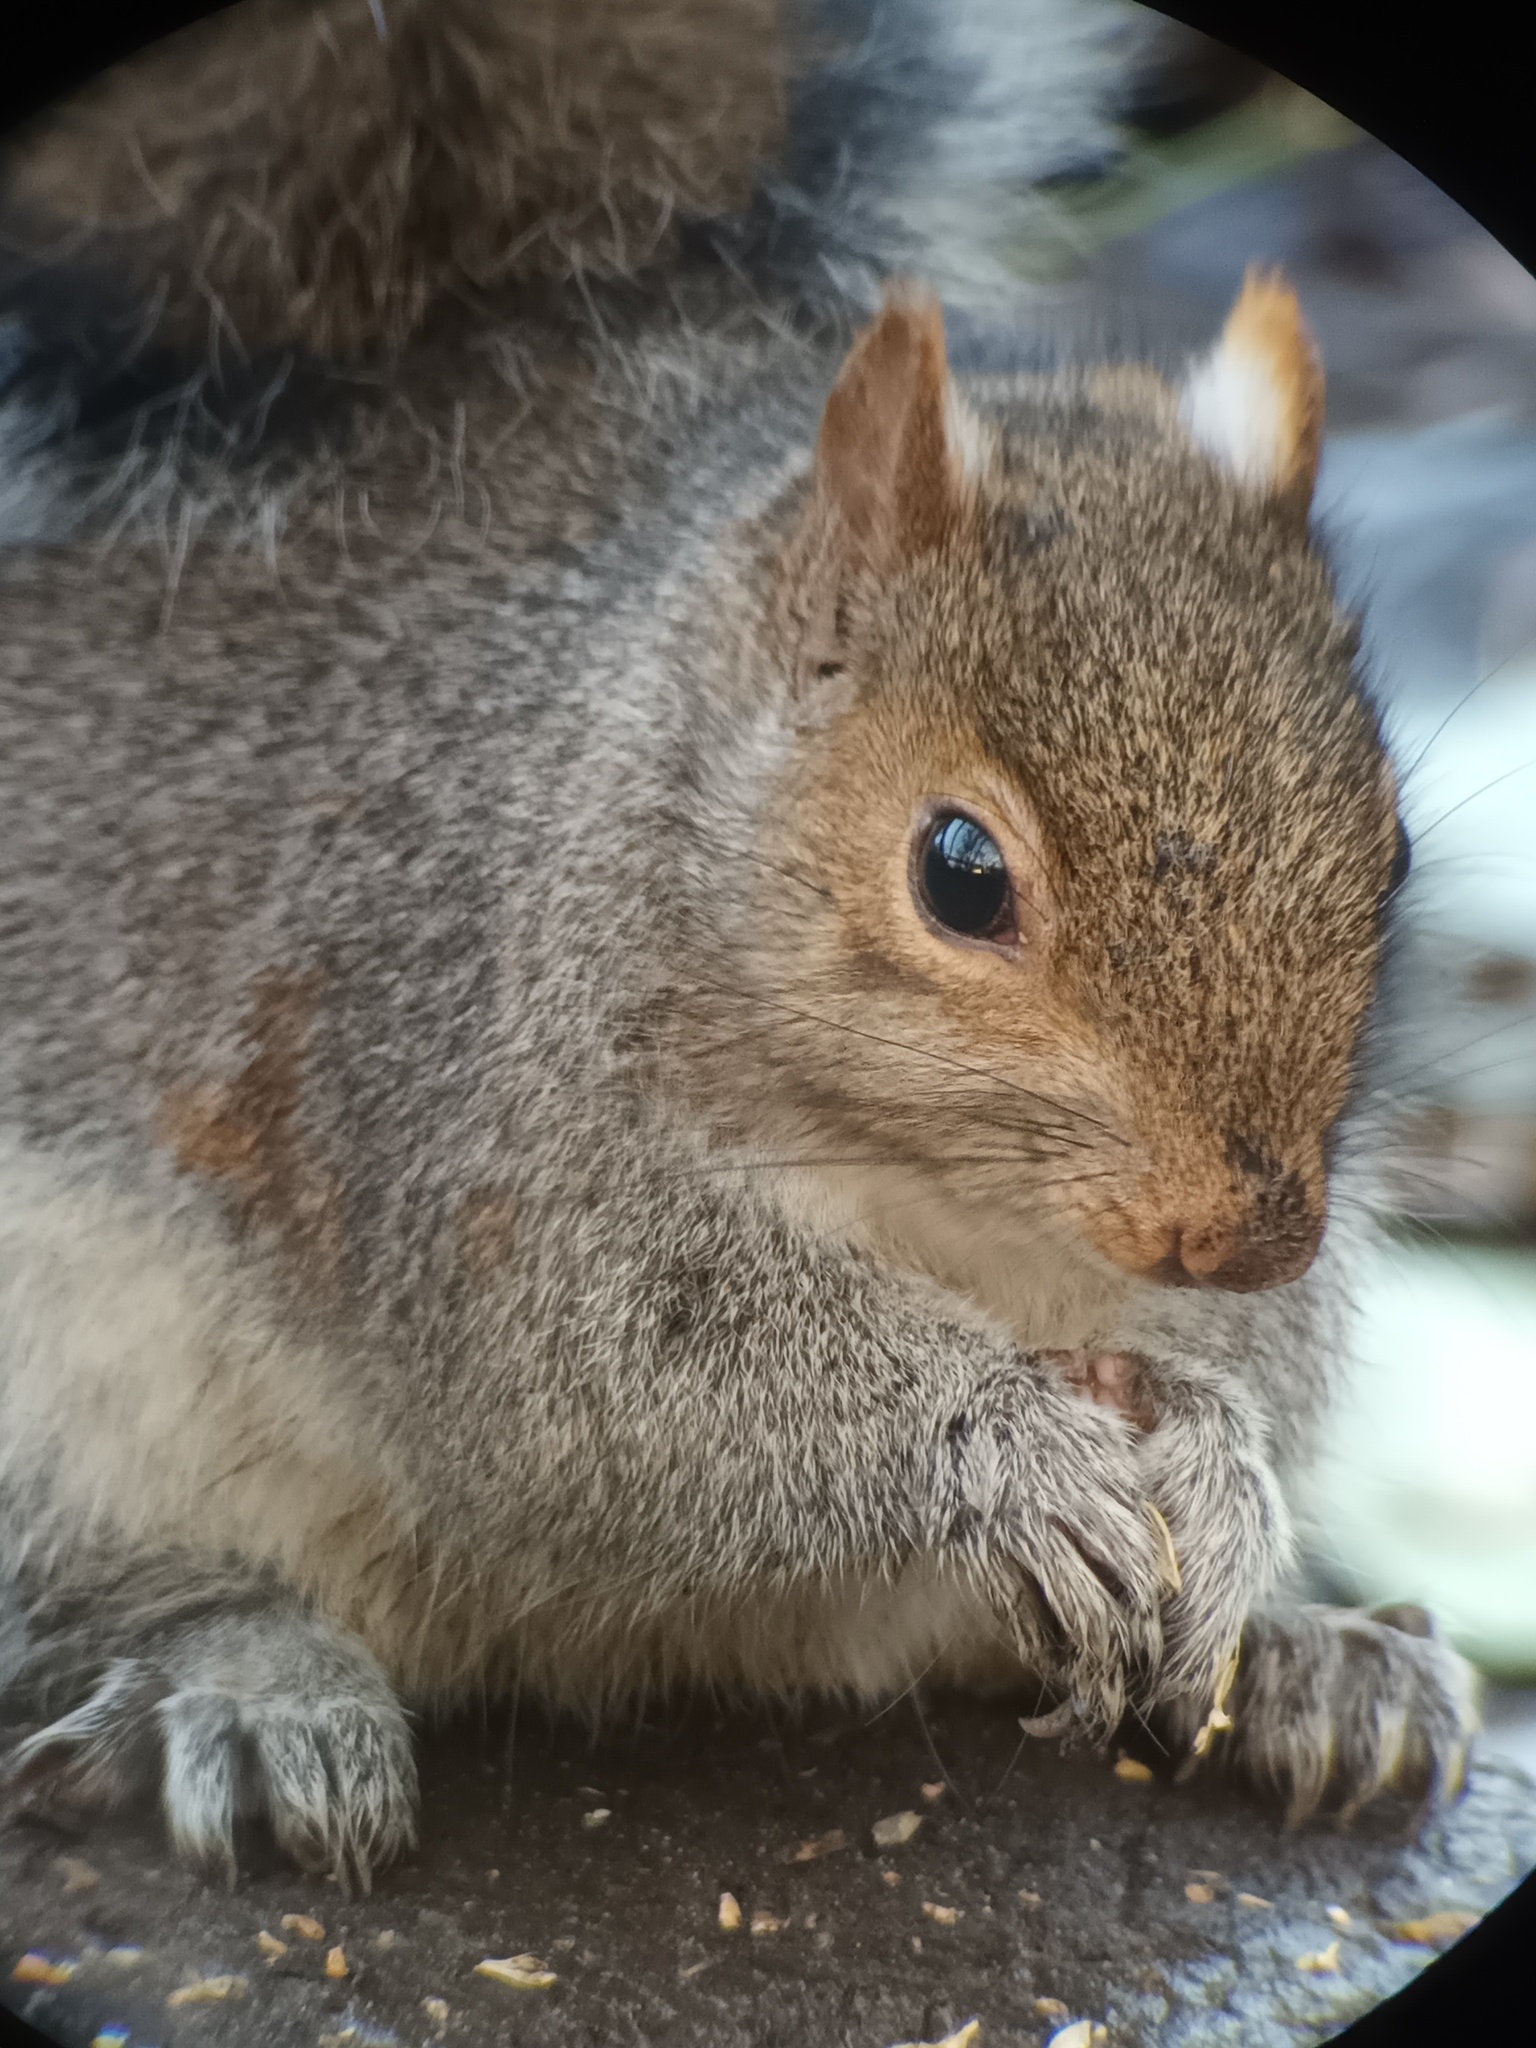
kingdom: Animalia
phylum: Chordata
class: Mammalia
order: Rodentia
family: Sciuridae
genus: Sciurus
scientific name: Sciurus carolinensis
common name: Eastern gray squirrel
